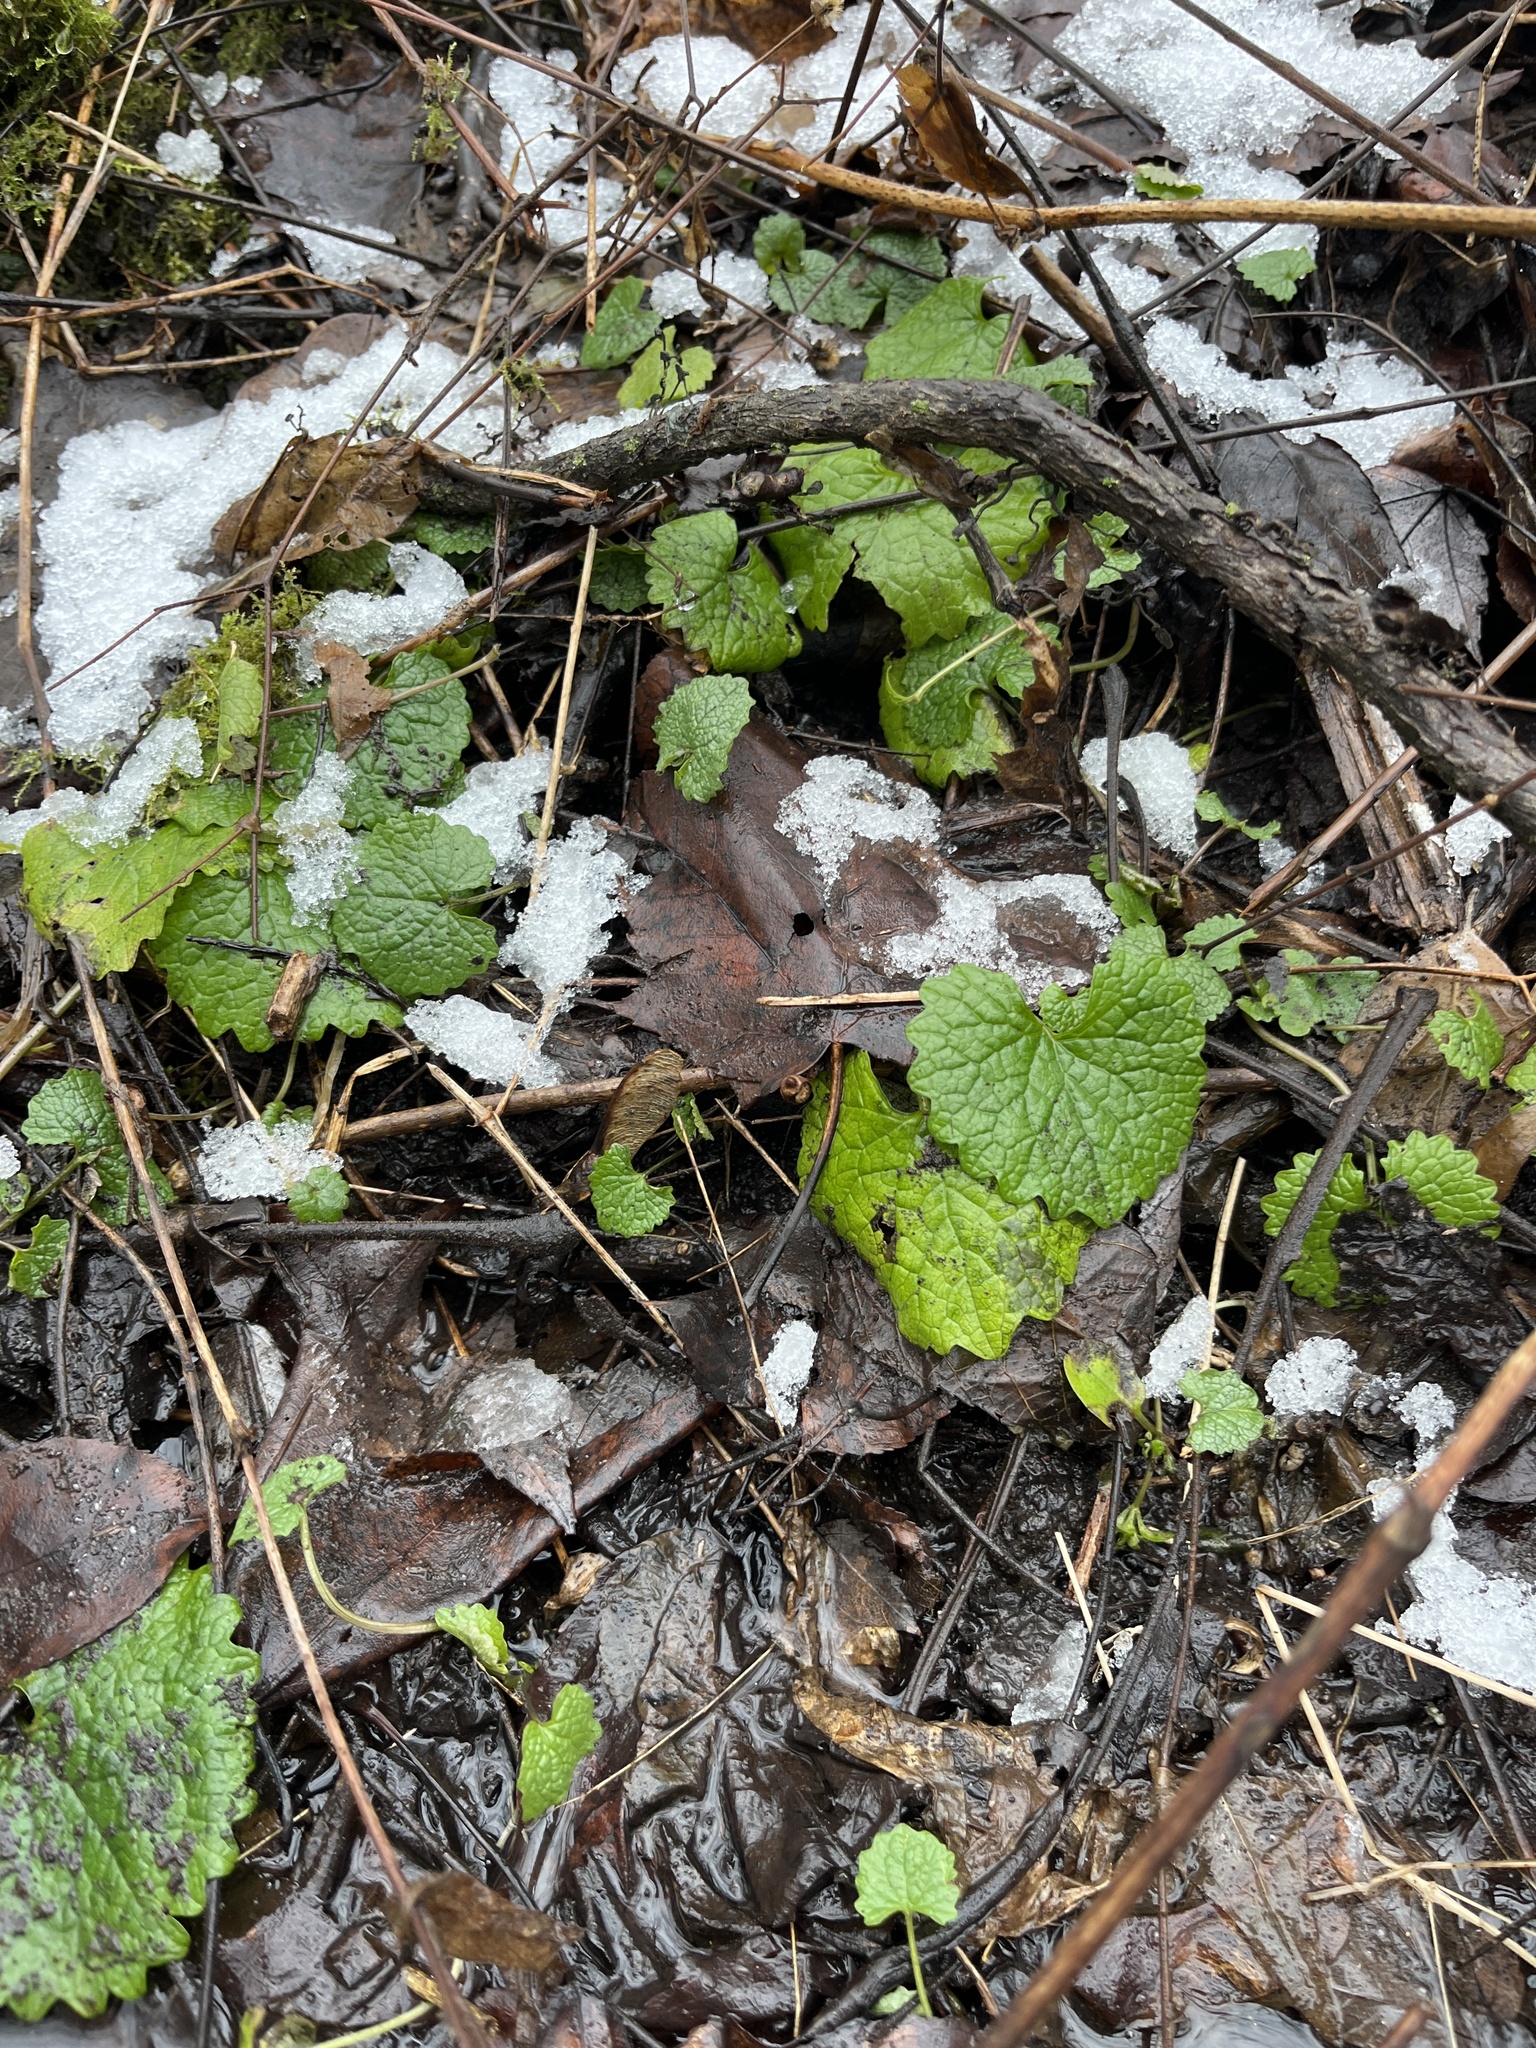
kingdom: Plantae
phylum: Tracheophyta
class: Magnoliopsida
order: Brassicales
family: Brassicaceae
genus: Alliaria
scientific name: Alliaria petiolata
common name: Garlic mustard
